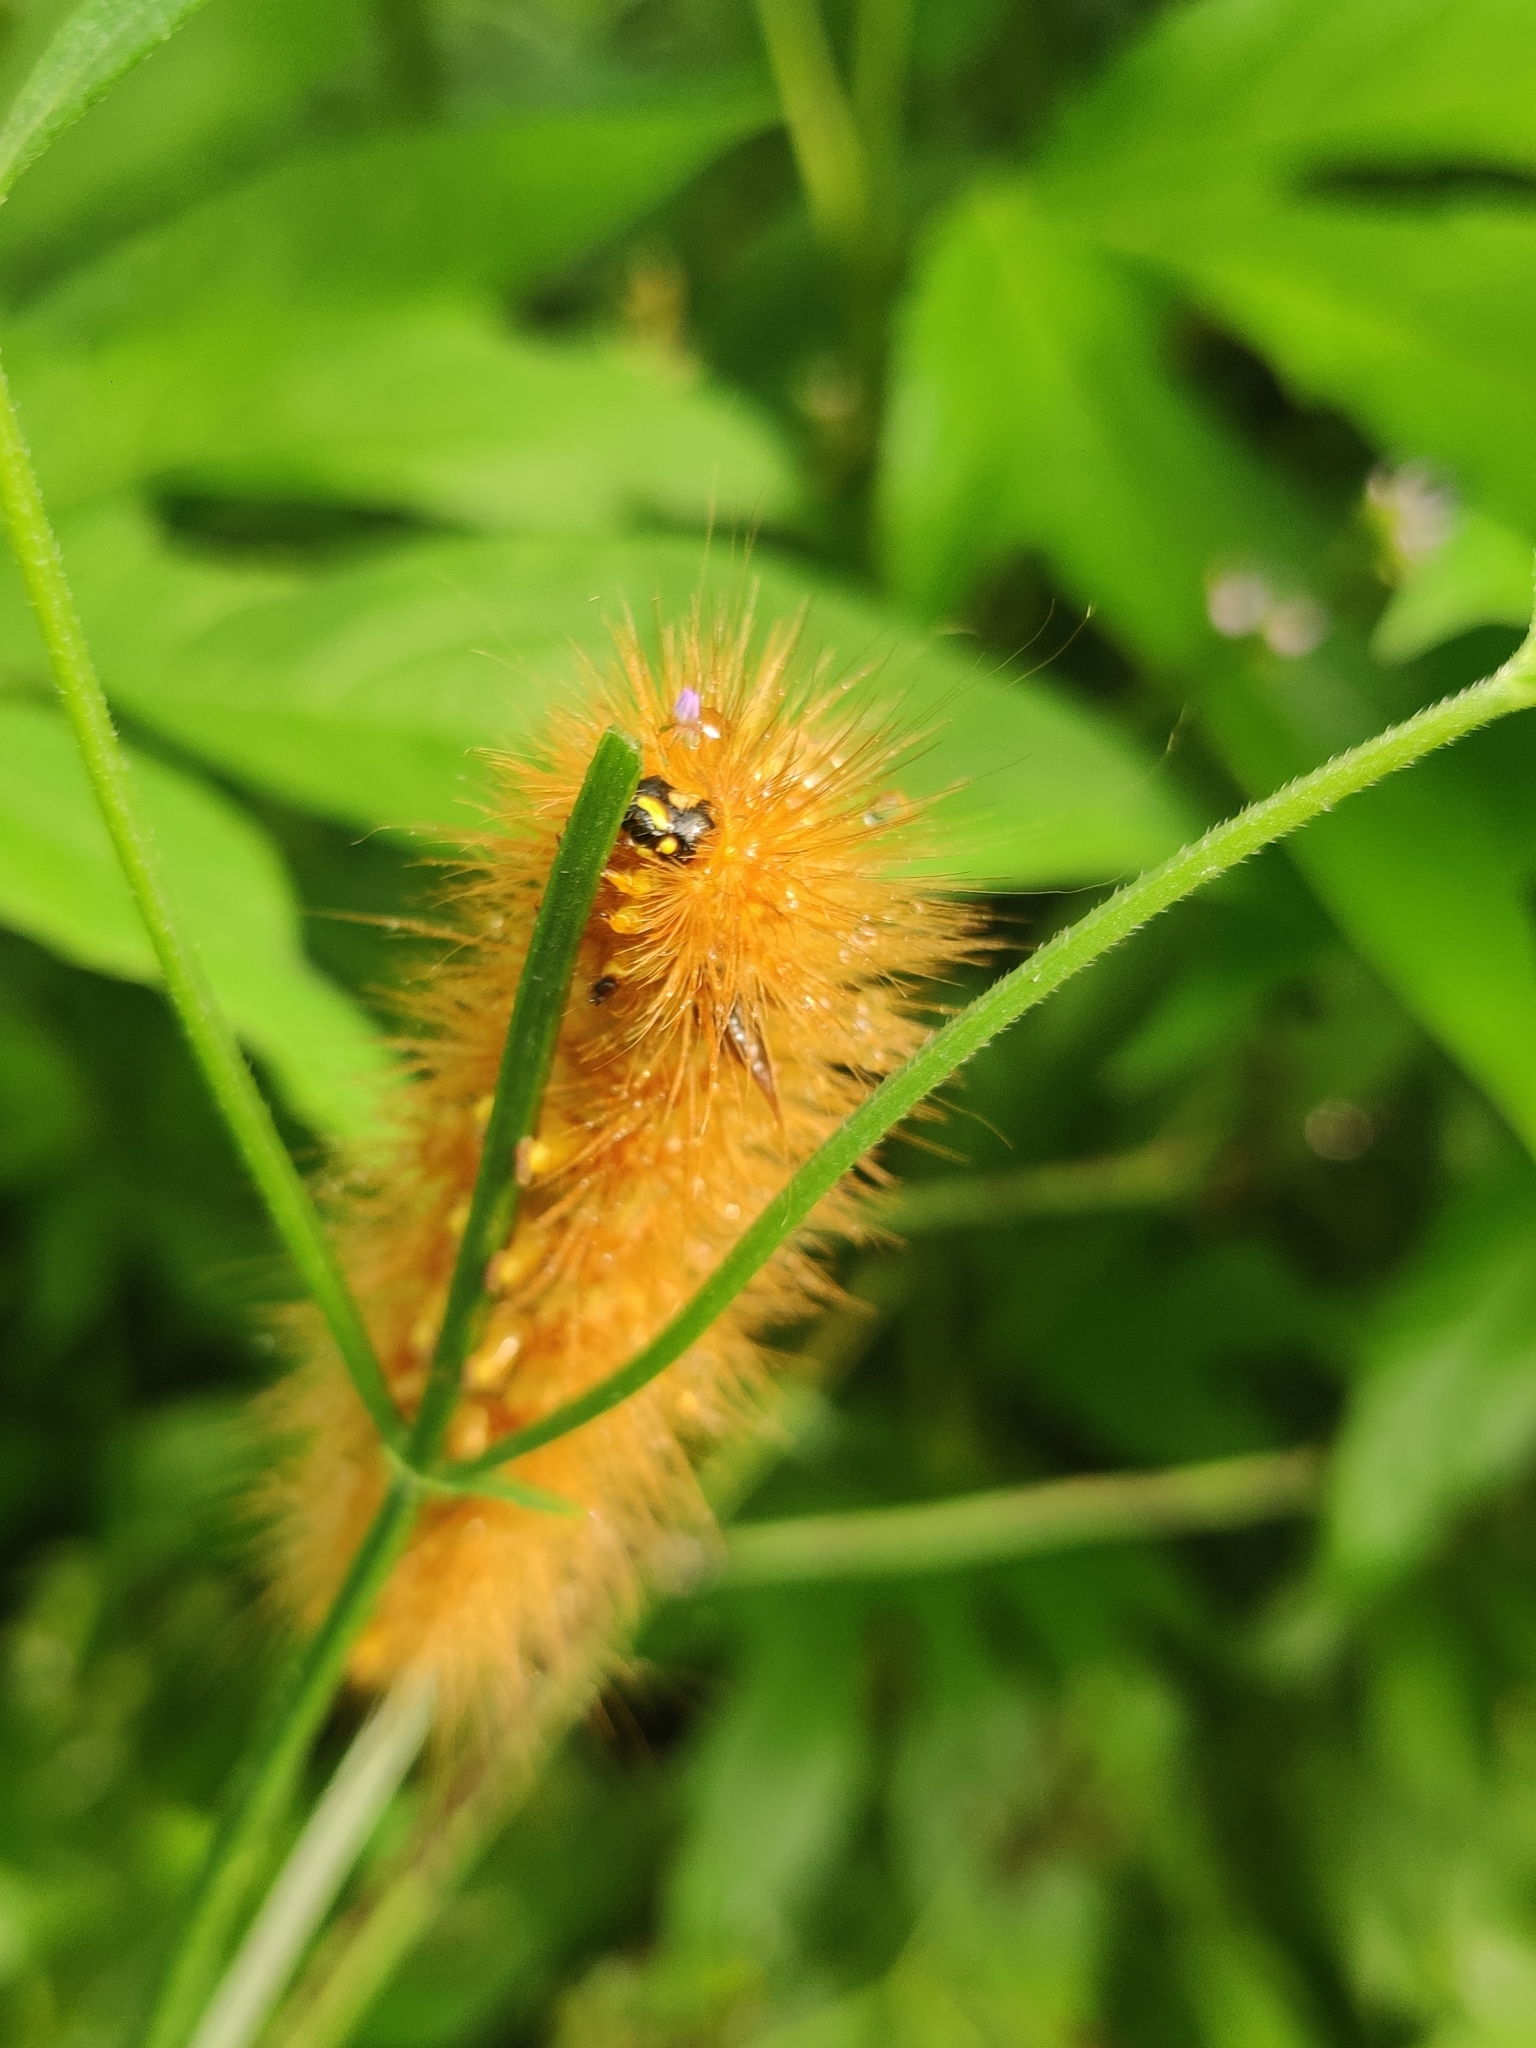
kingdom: Animalia
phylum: Arthropoda
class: Insecta
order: Lepidoptera
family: Erebidae
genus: Estigmene
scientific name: Estigmene acrea
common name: Salt marsh moth
